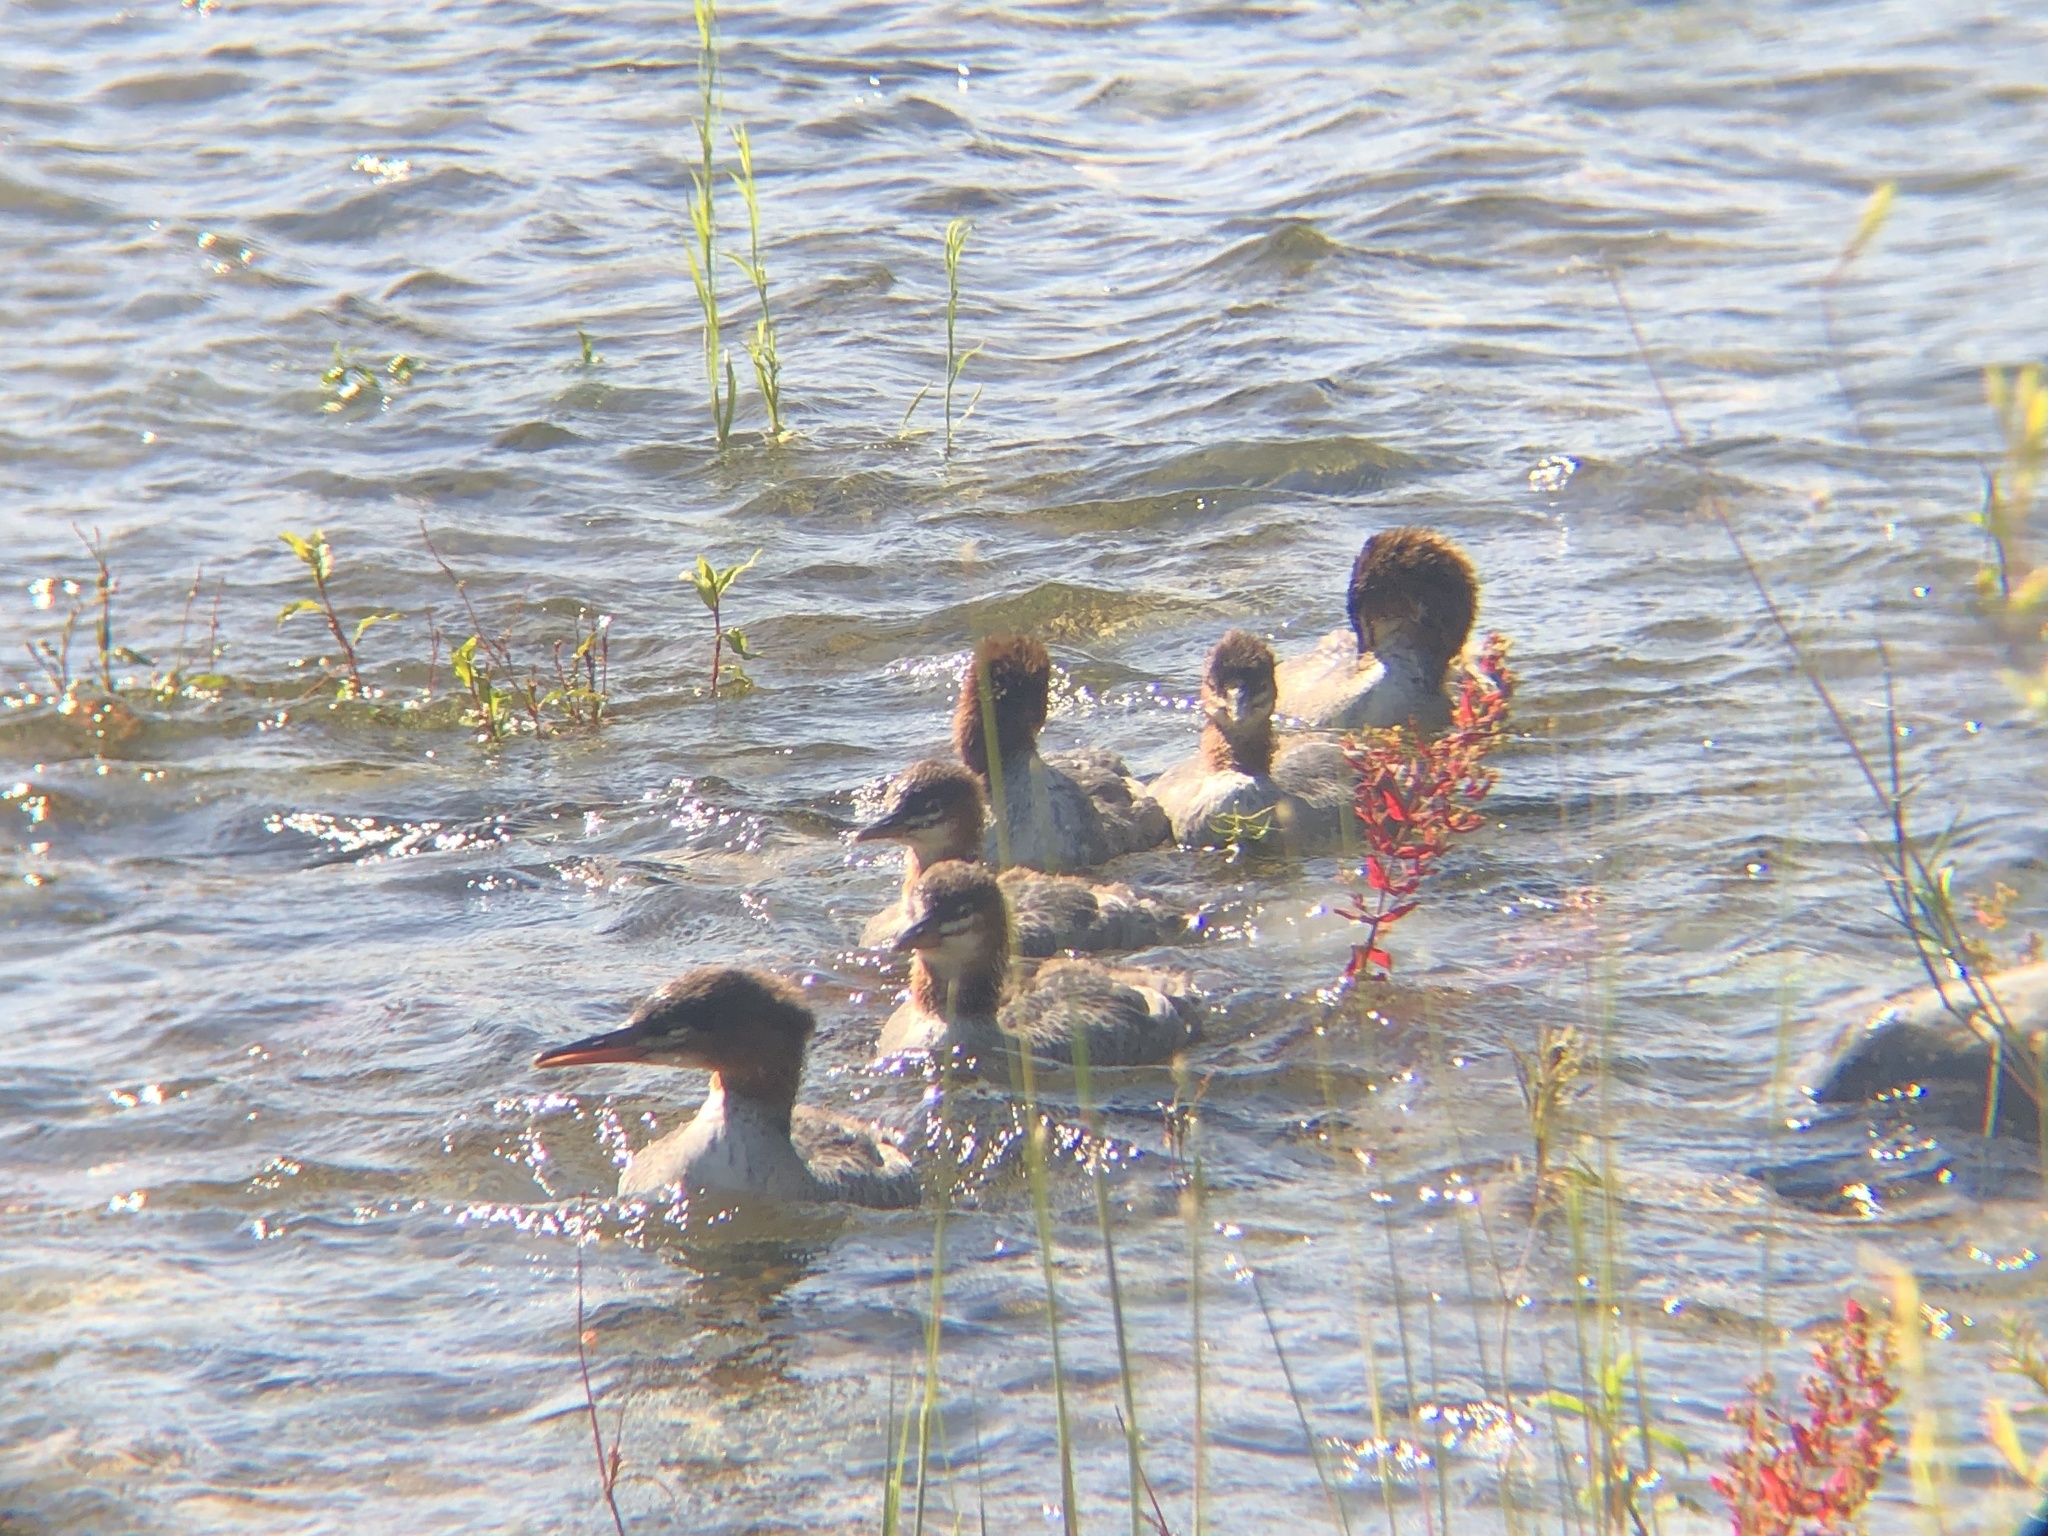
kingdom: Animalia
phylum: Chordata
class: Aves
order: Anseriformes
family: Anatidae
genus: Mergus
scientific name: Mergus merganser
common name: Common merganser
